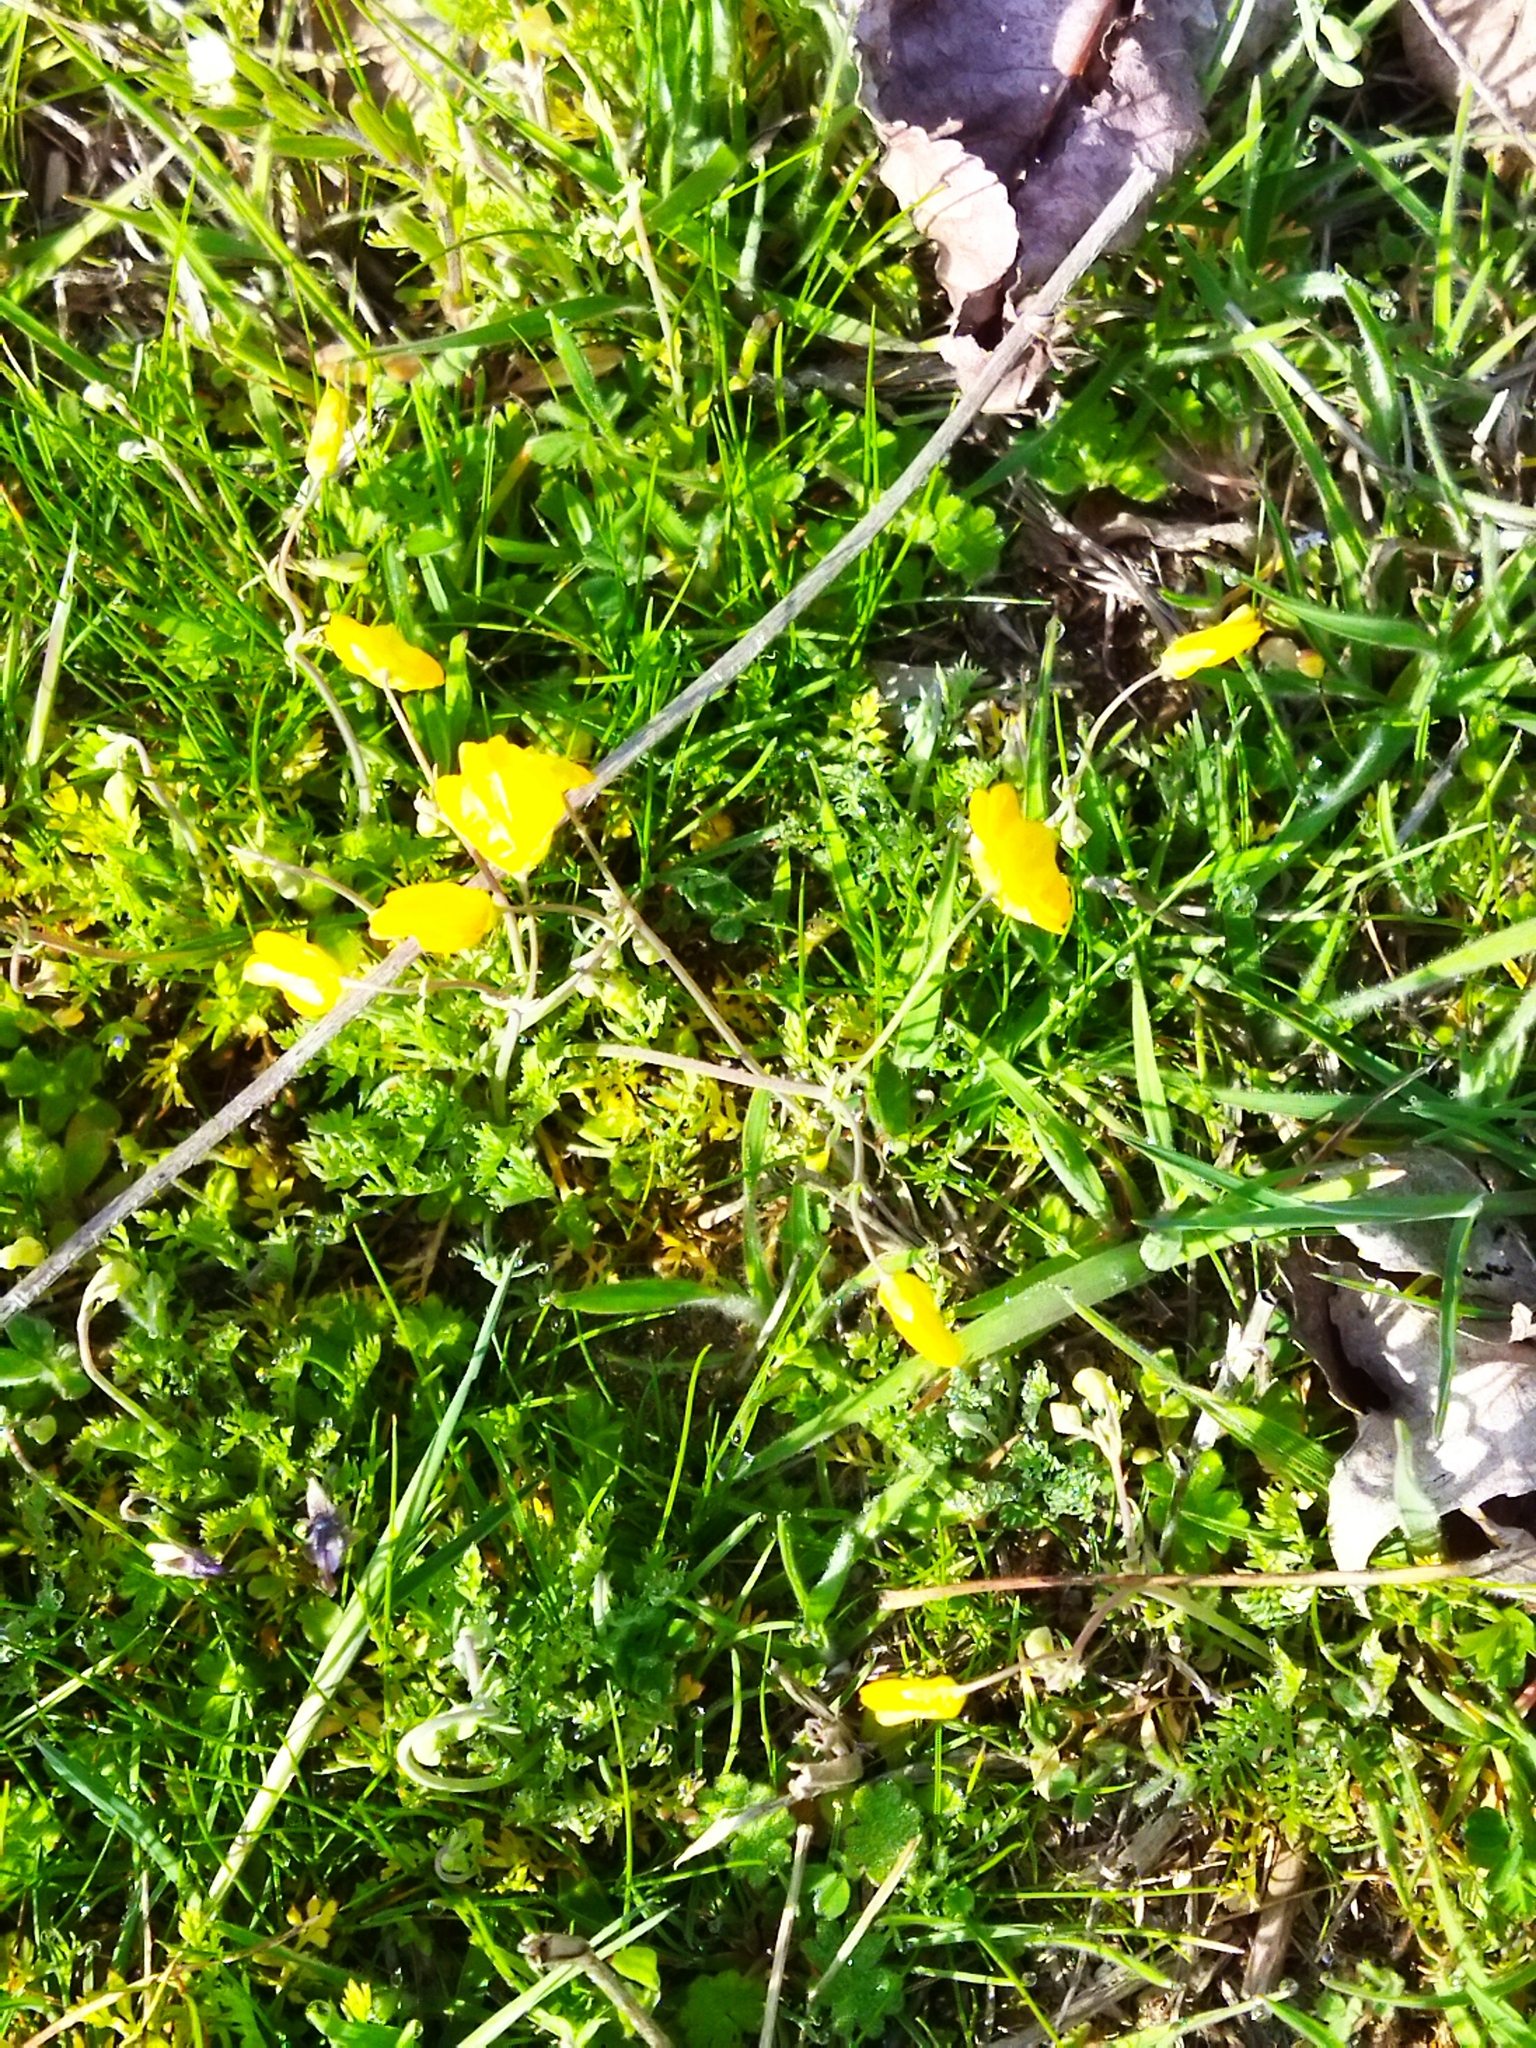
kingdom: Plantae
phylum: Tracheophyta
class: Magnoliopsida
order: Ranunculales
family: Papaveraceae
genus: Hypecoum
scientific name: Hypecoum imberbe
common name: Sicklefruit hypecoum
